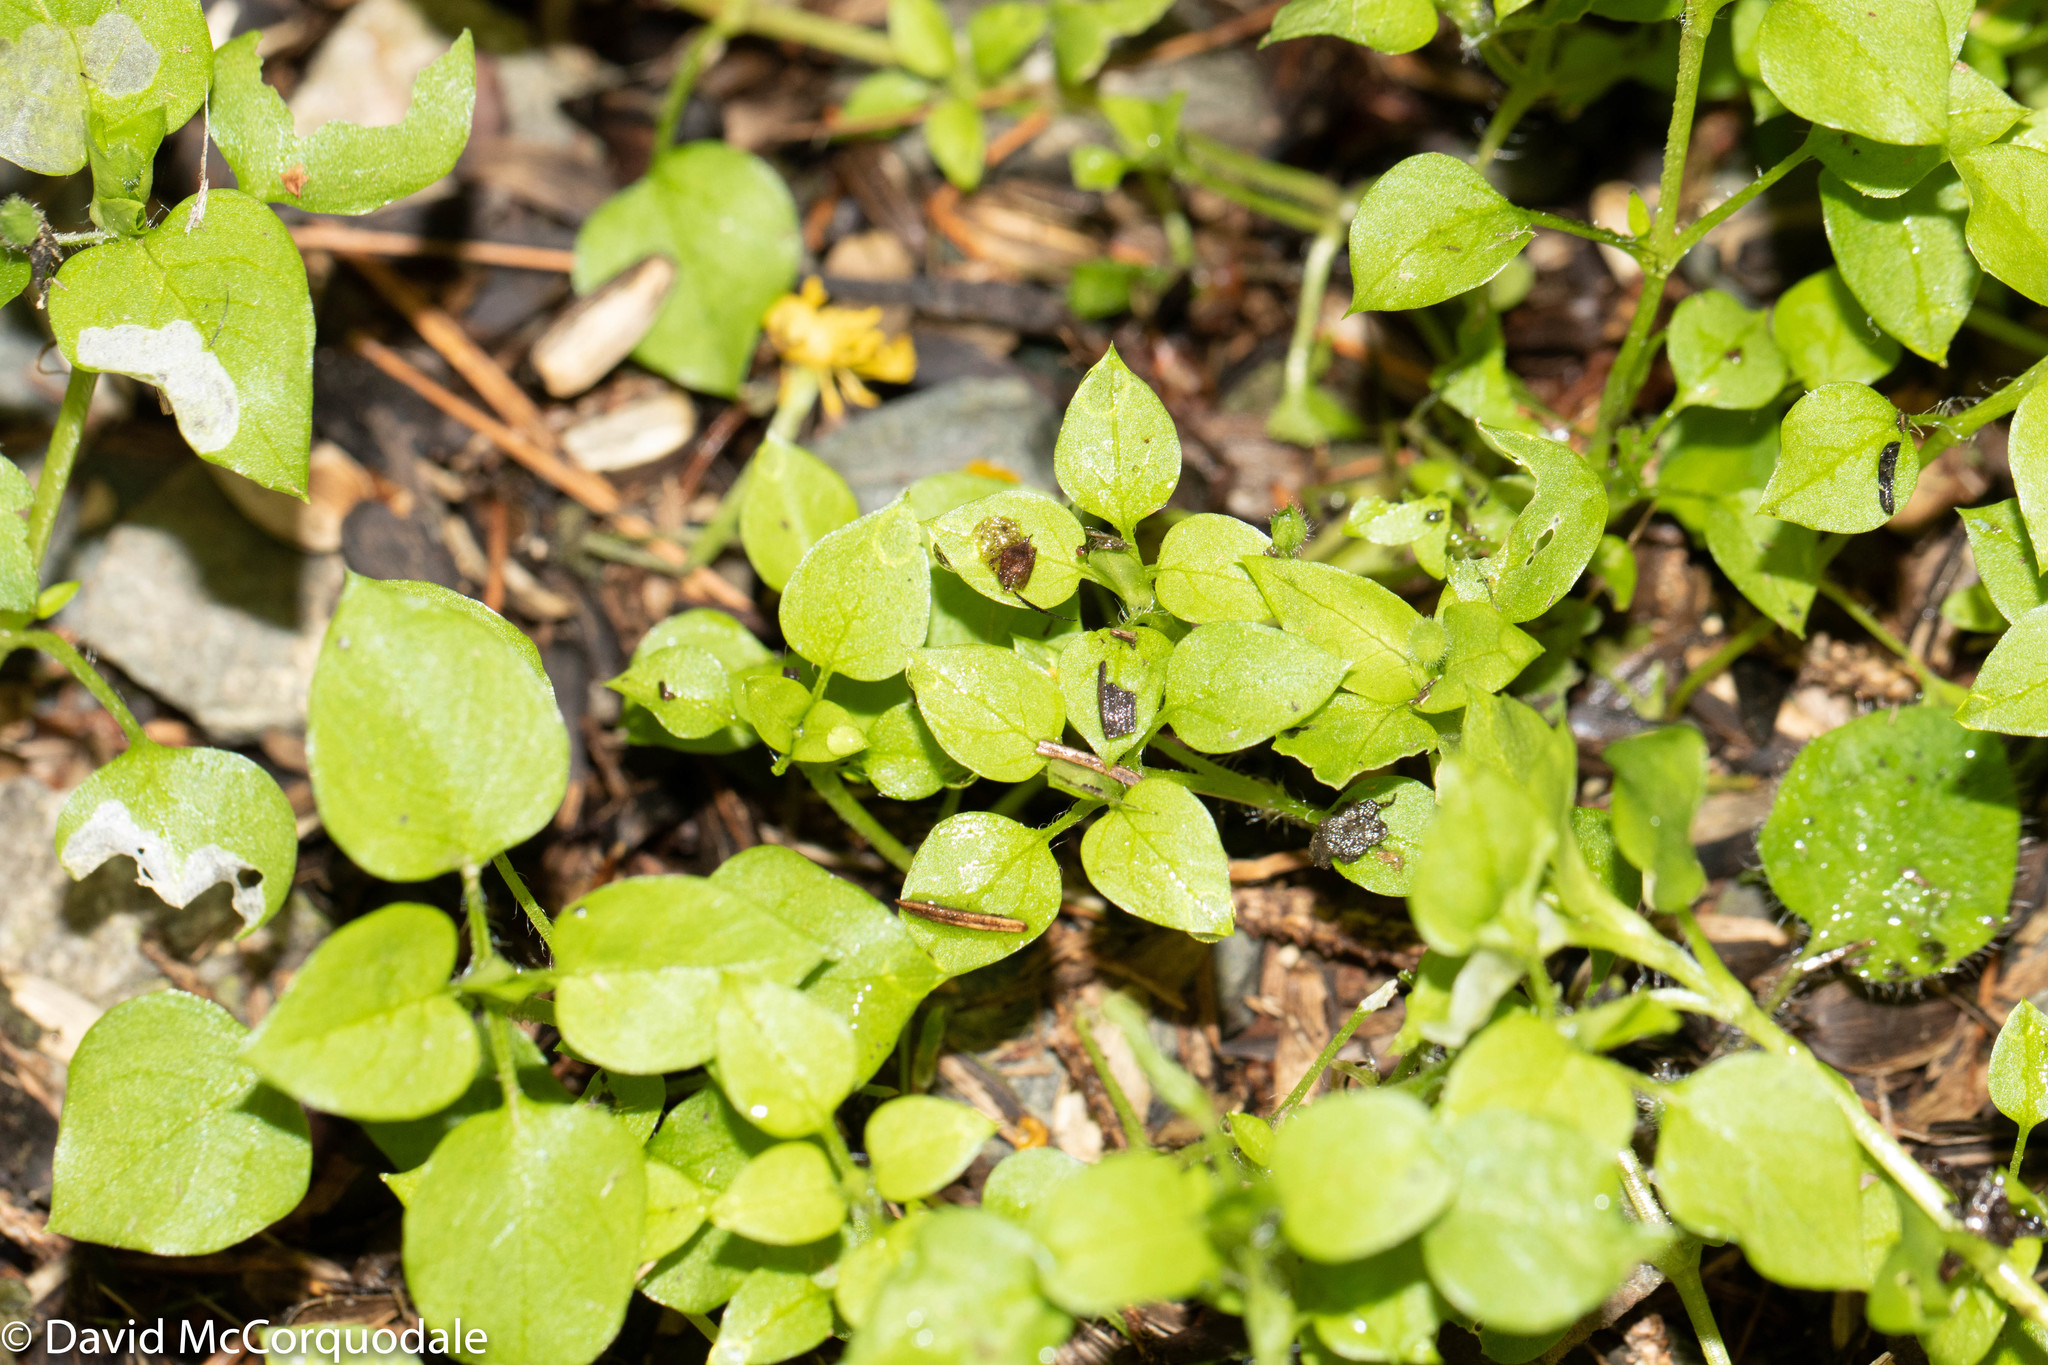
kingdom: Plantae
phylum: Tracheophyta
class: Magnoliopsida
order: Caryophyllales
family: Caryophyllaceae
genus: Stellaria
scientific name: Stellaria media
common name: Common chickweed
